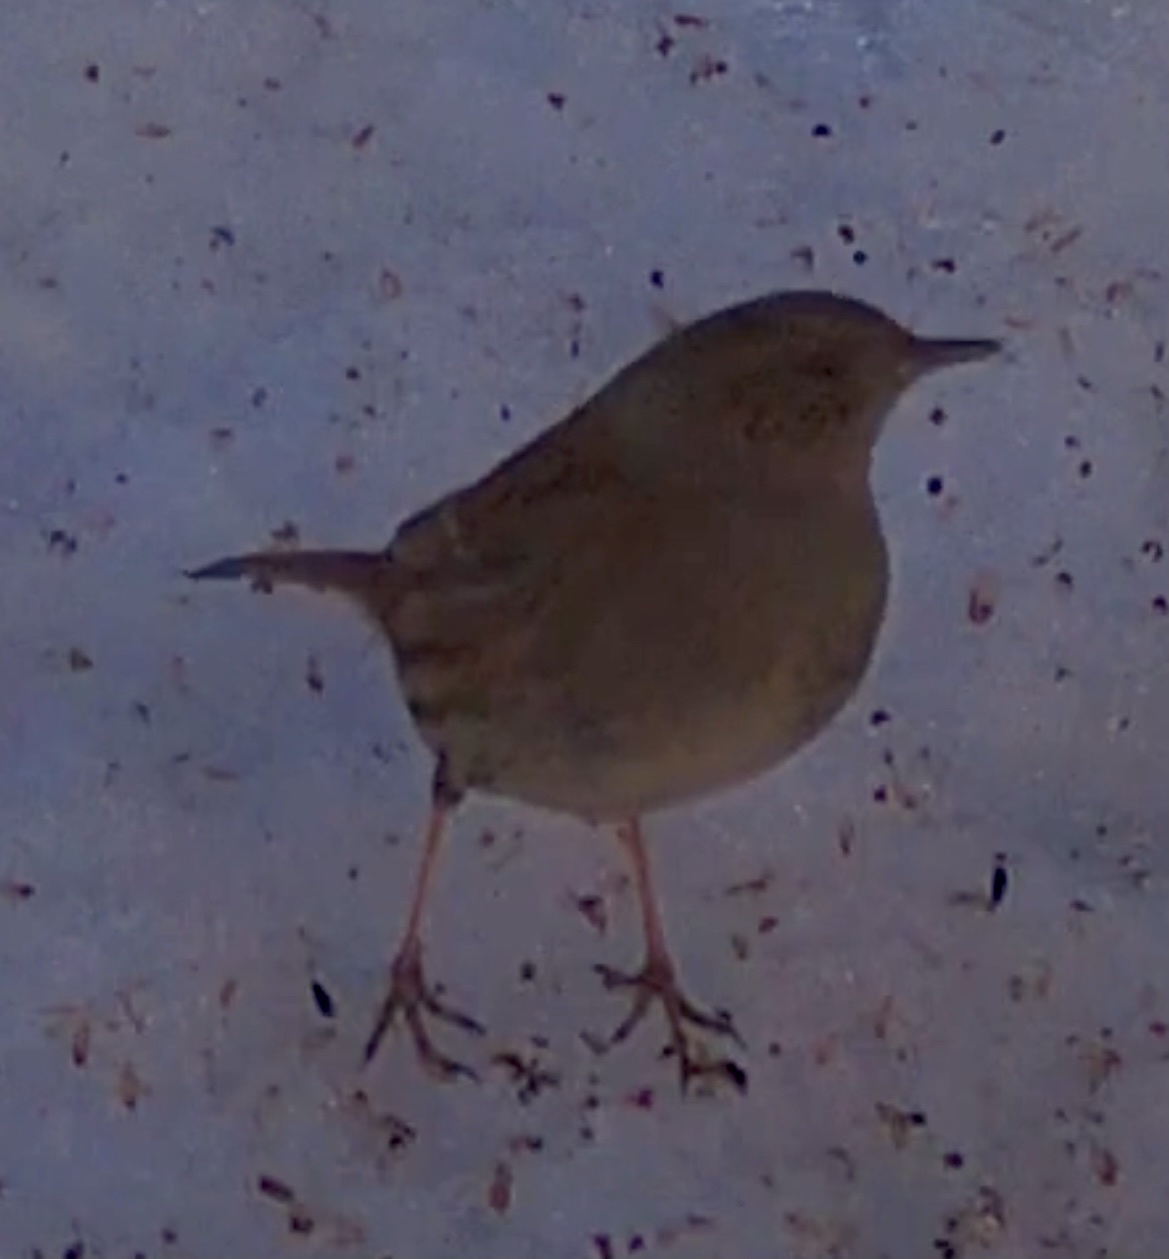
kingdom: Animalia
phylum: Chordata
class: Aves
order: Passeriformes
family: Prunellidae
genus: Prunella
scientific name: Prunella modularis
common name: Dunnock
